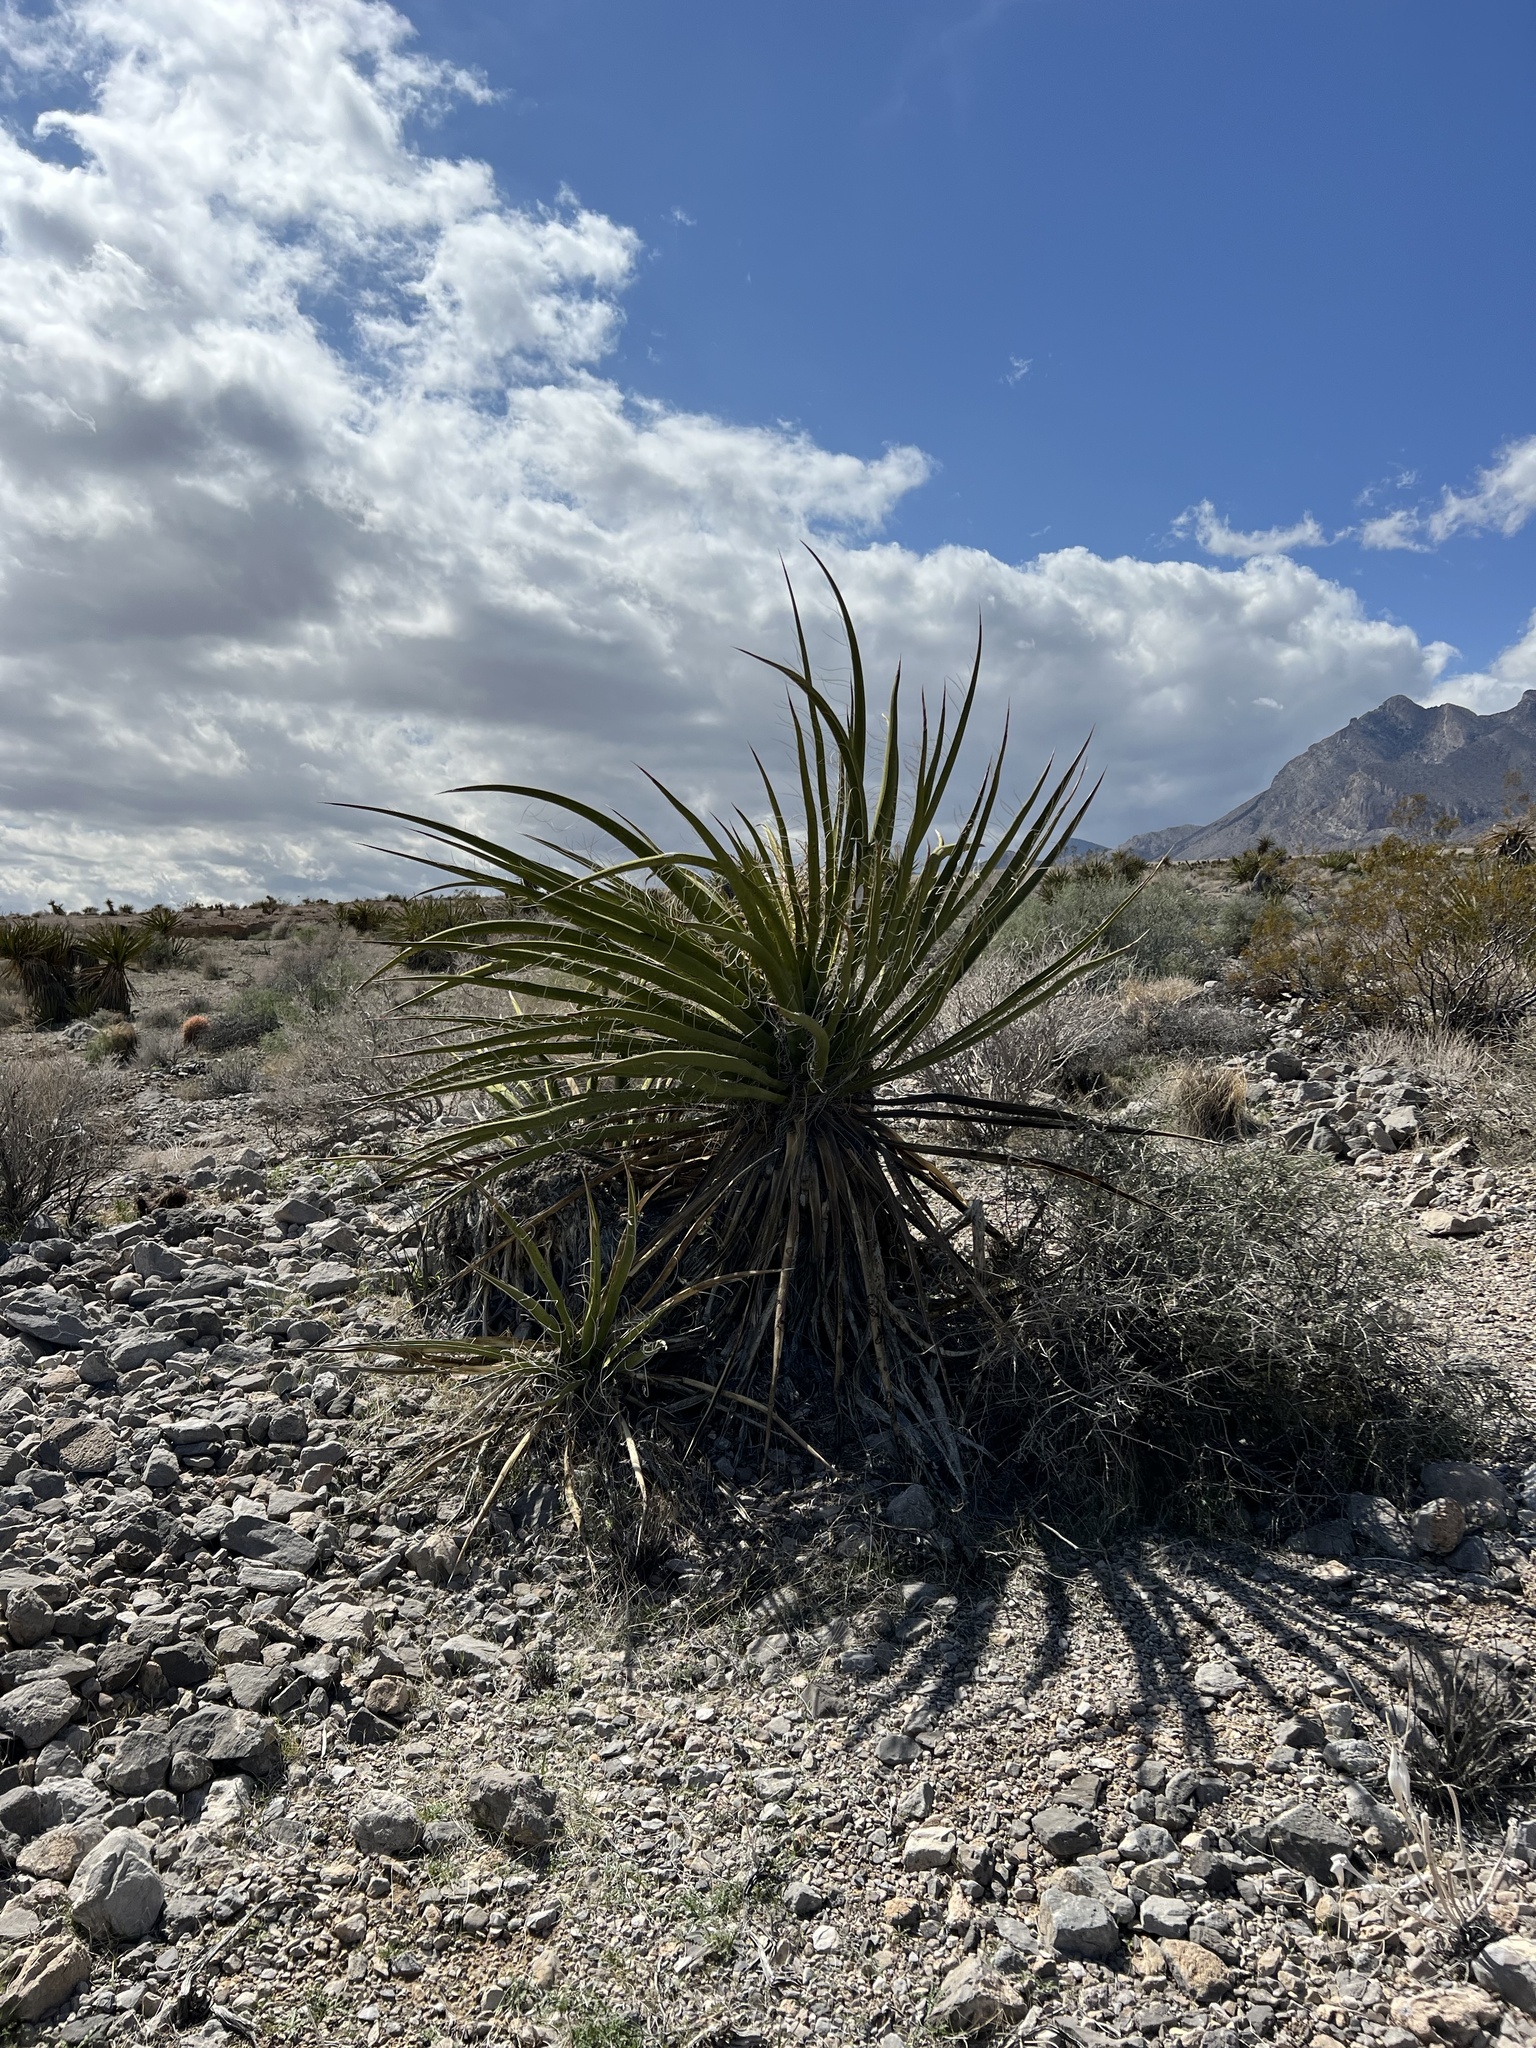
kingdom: Plantae
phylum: Tracheophyta
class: Liliopsida
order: Asparagales
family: Asparagaceae
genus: Yucca
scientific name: Yucca schidigera
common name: Mojave yucca
